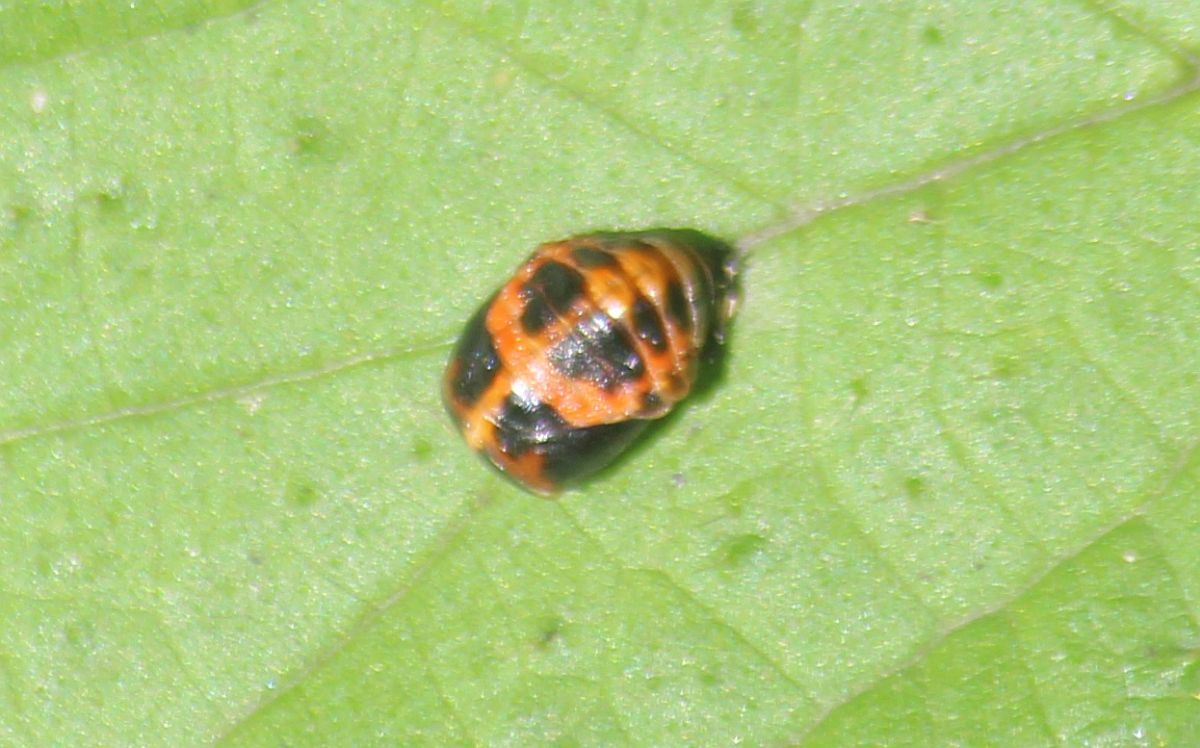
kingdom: Animalia
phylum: Arthropoda
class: Insecta
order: Coleoptera
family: Coccinellidae
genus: Harmonia
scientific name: Harmonia axyridis
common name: Harlequin ladybird
